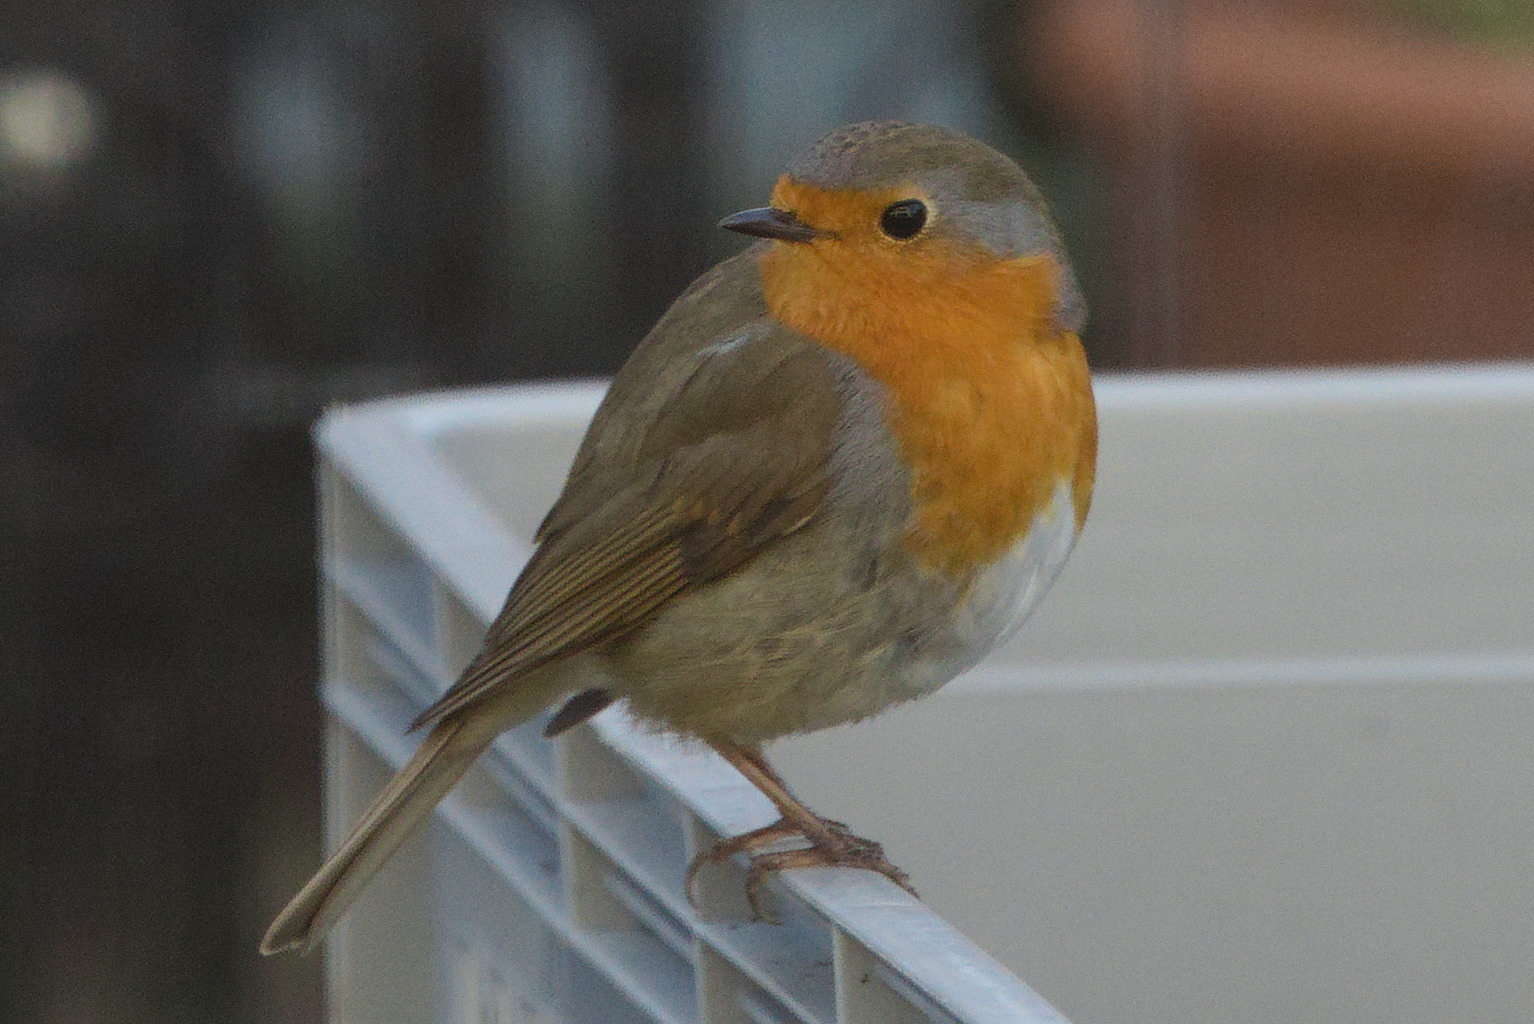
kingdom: Animalia
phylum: Chordata
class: Aves
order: Passeriformes
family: Muscicapidae
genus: Erithacus
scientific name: Erithacus rubecula
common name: European robin
